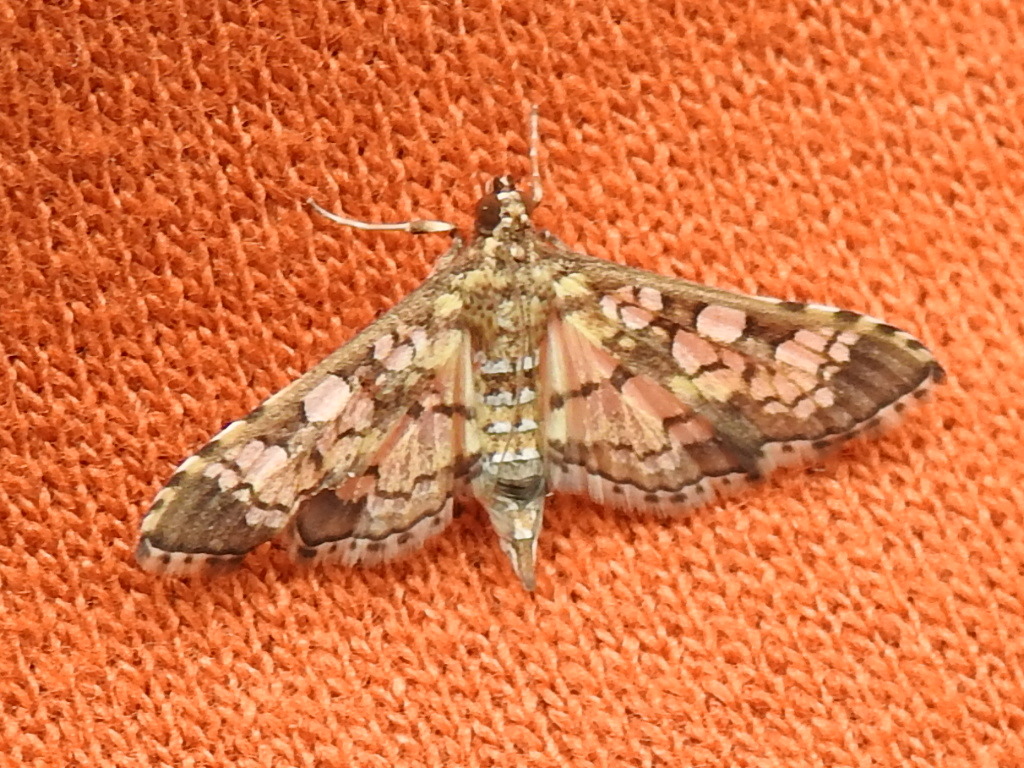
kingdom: Animalia
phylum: Arthropoda
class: Insecta
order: Lepidoptera
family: Crambidae
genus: Samea
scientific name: Samea ecclesialis
